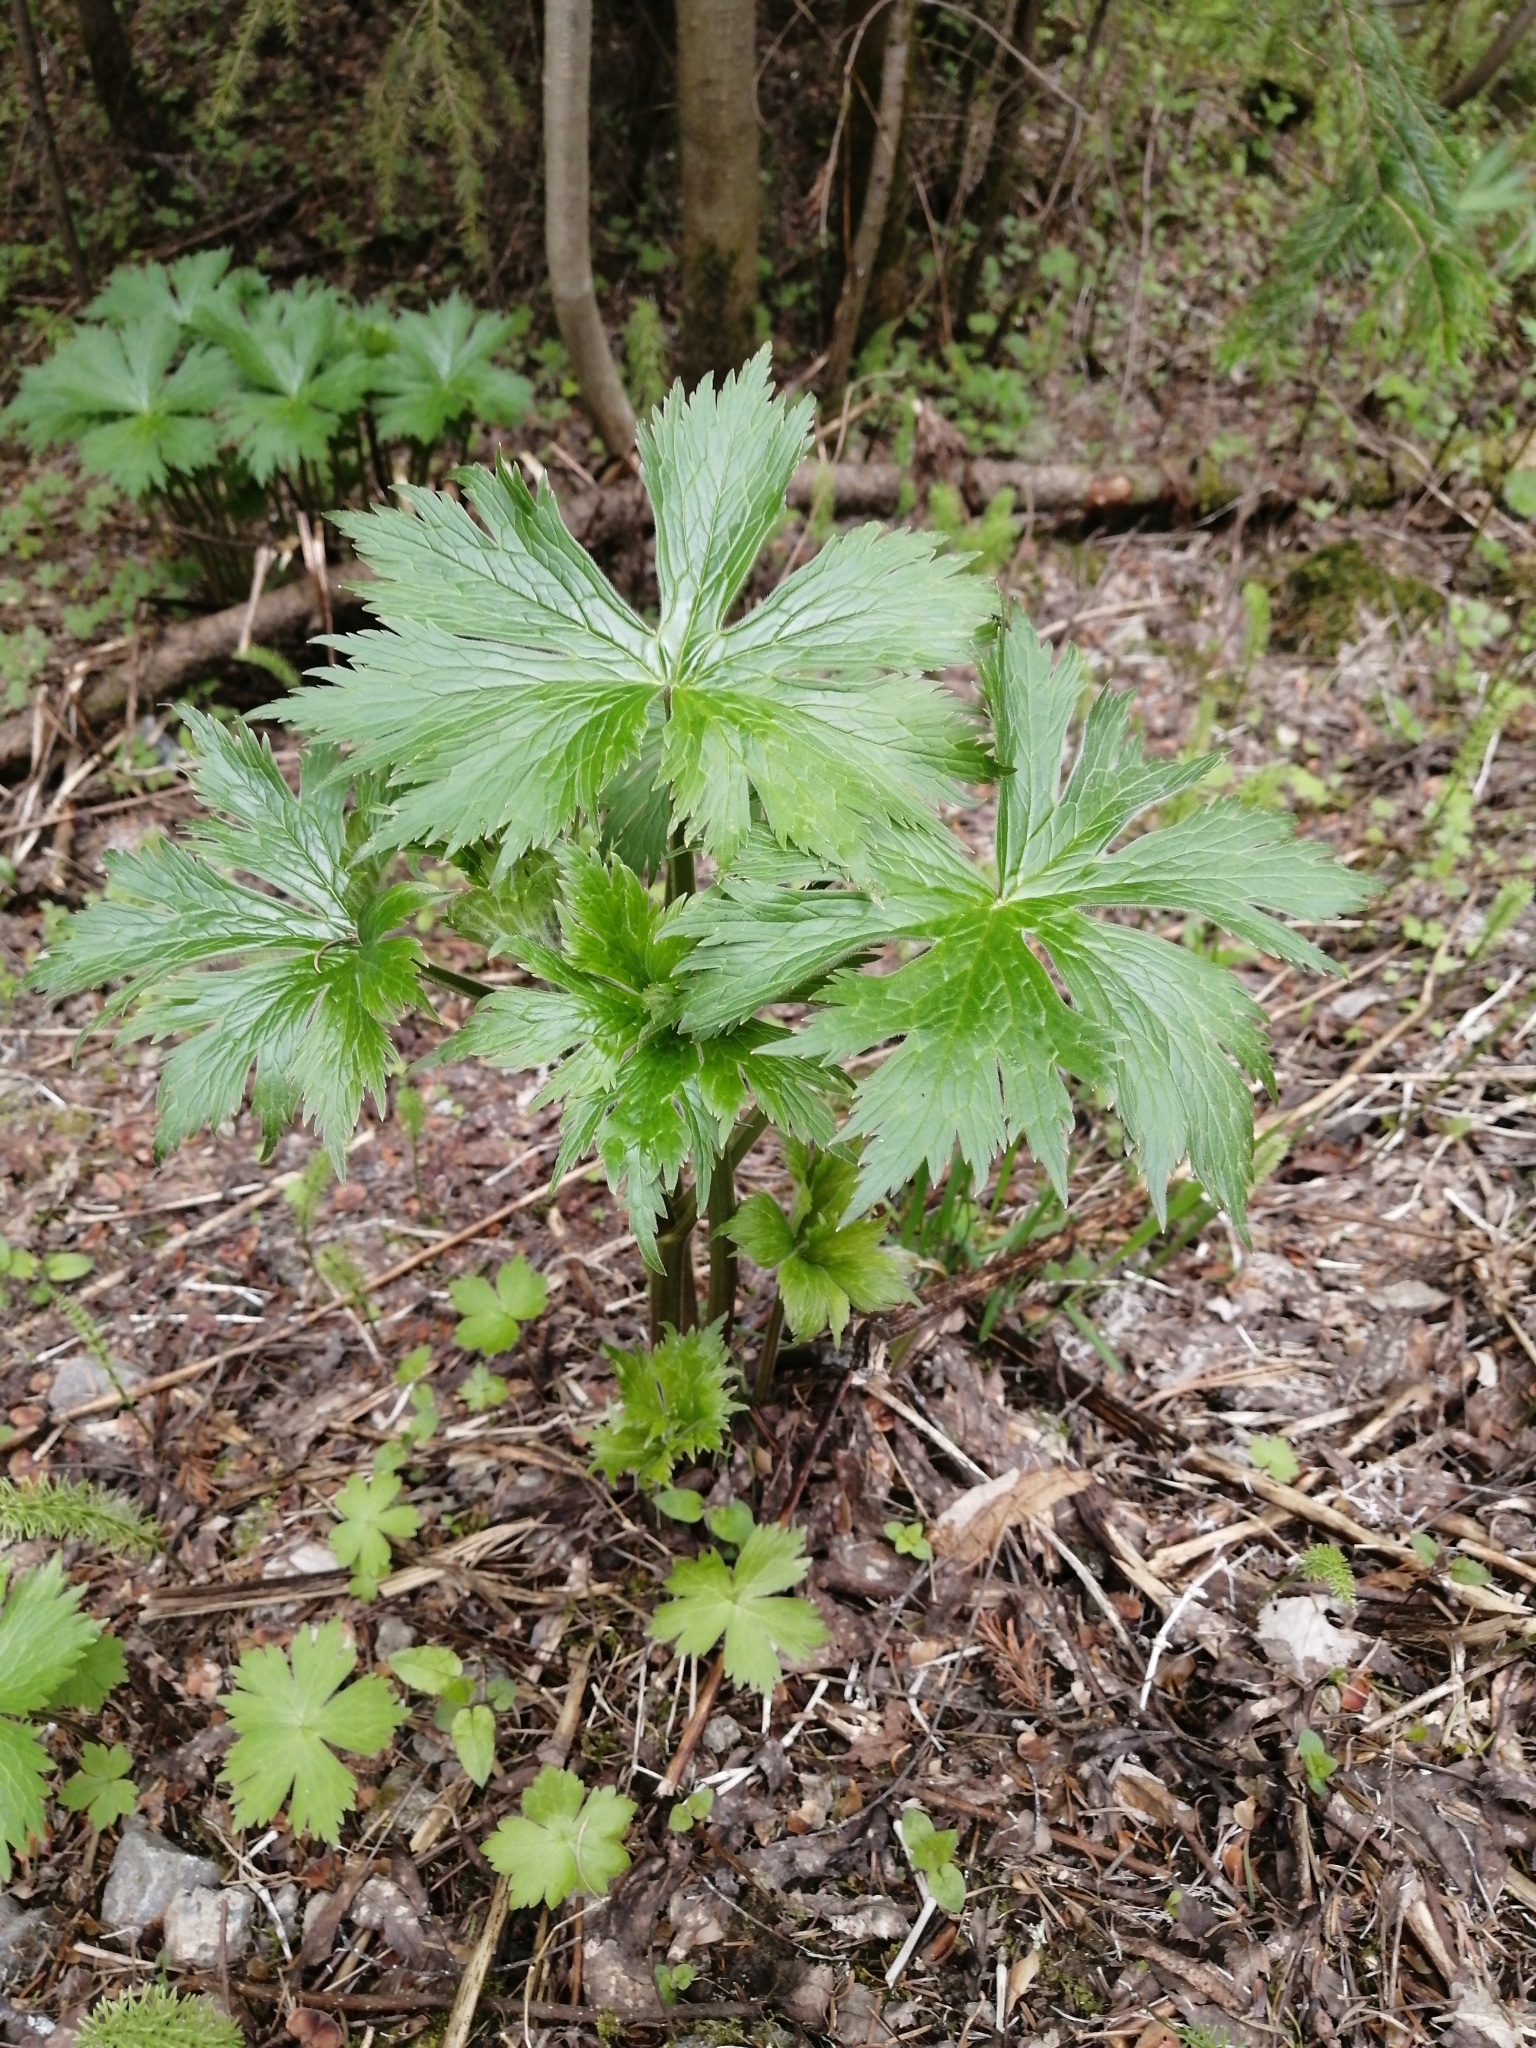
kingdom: Plantae
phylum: Tracheophyta
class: Magnoliopsida
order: Ranunculales
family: Ranunculaceae
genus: Aconitum
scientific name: Aconitum septentrionale
